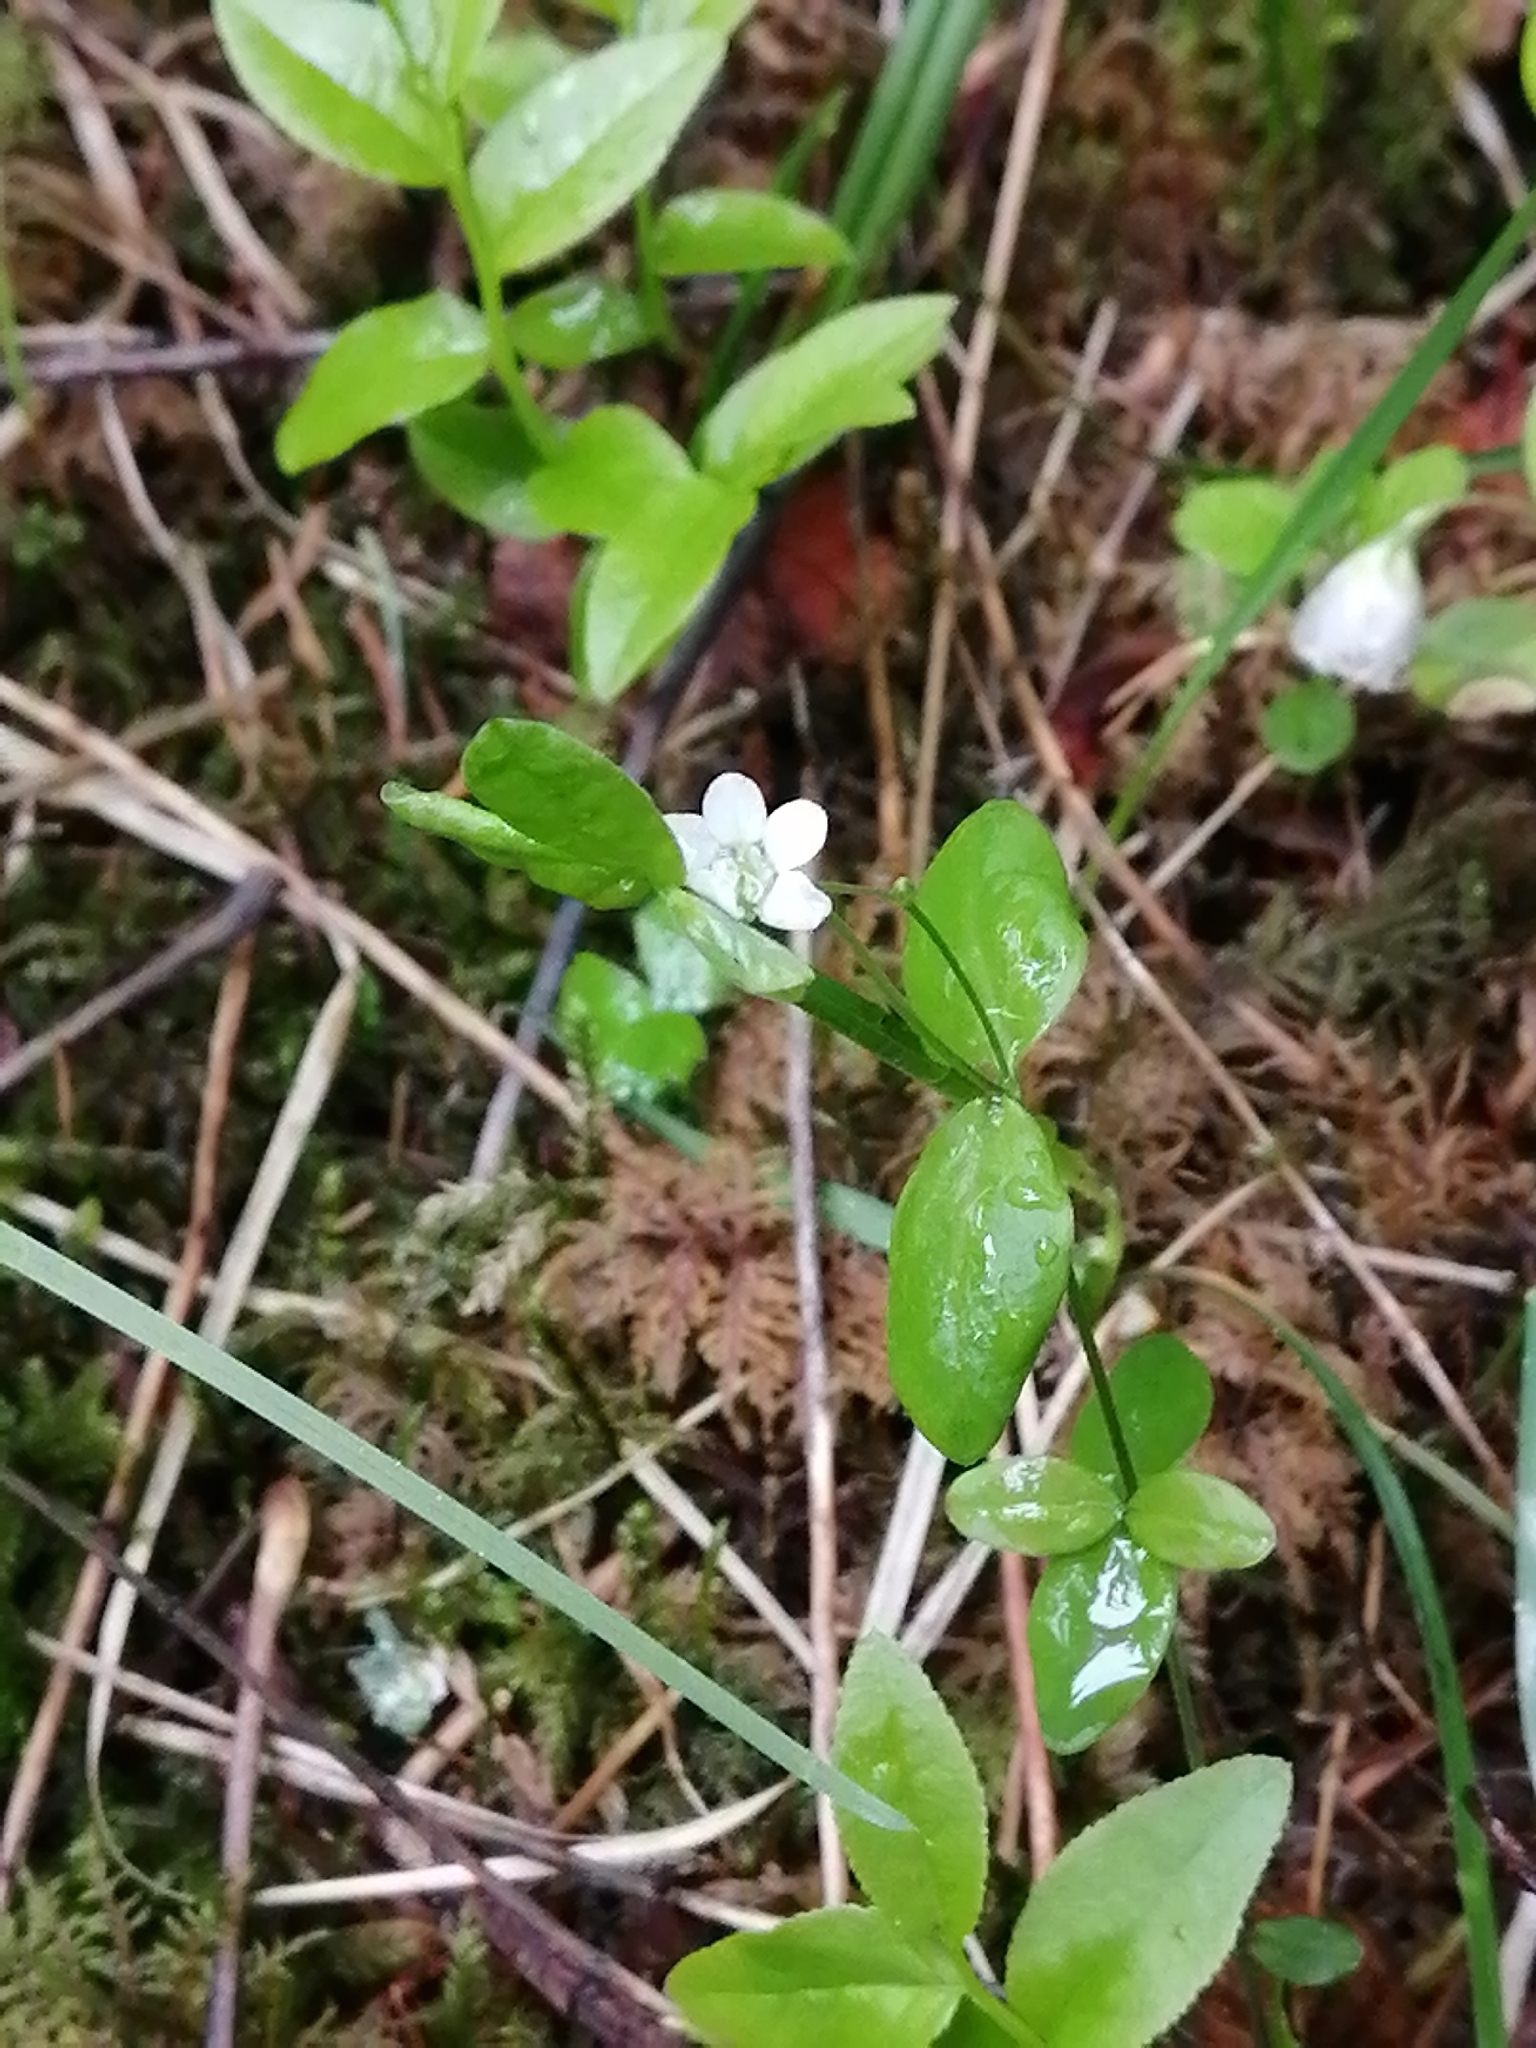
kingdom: Plantae
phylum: Tracheophyta
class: Magnoliopsida
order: Caryophyllales
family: Caryophyllaceae
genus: Moehringia
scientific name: Moehringia lateriflora
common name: Blunt-leaved sandwort
